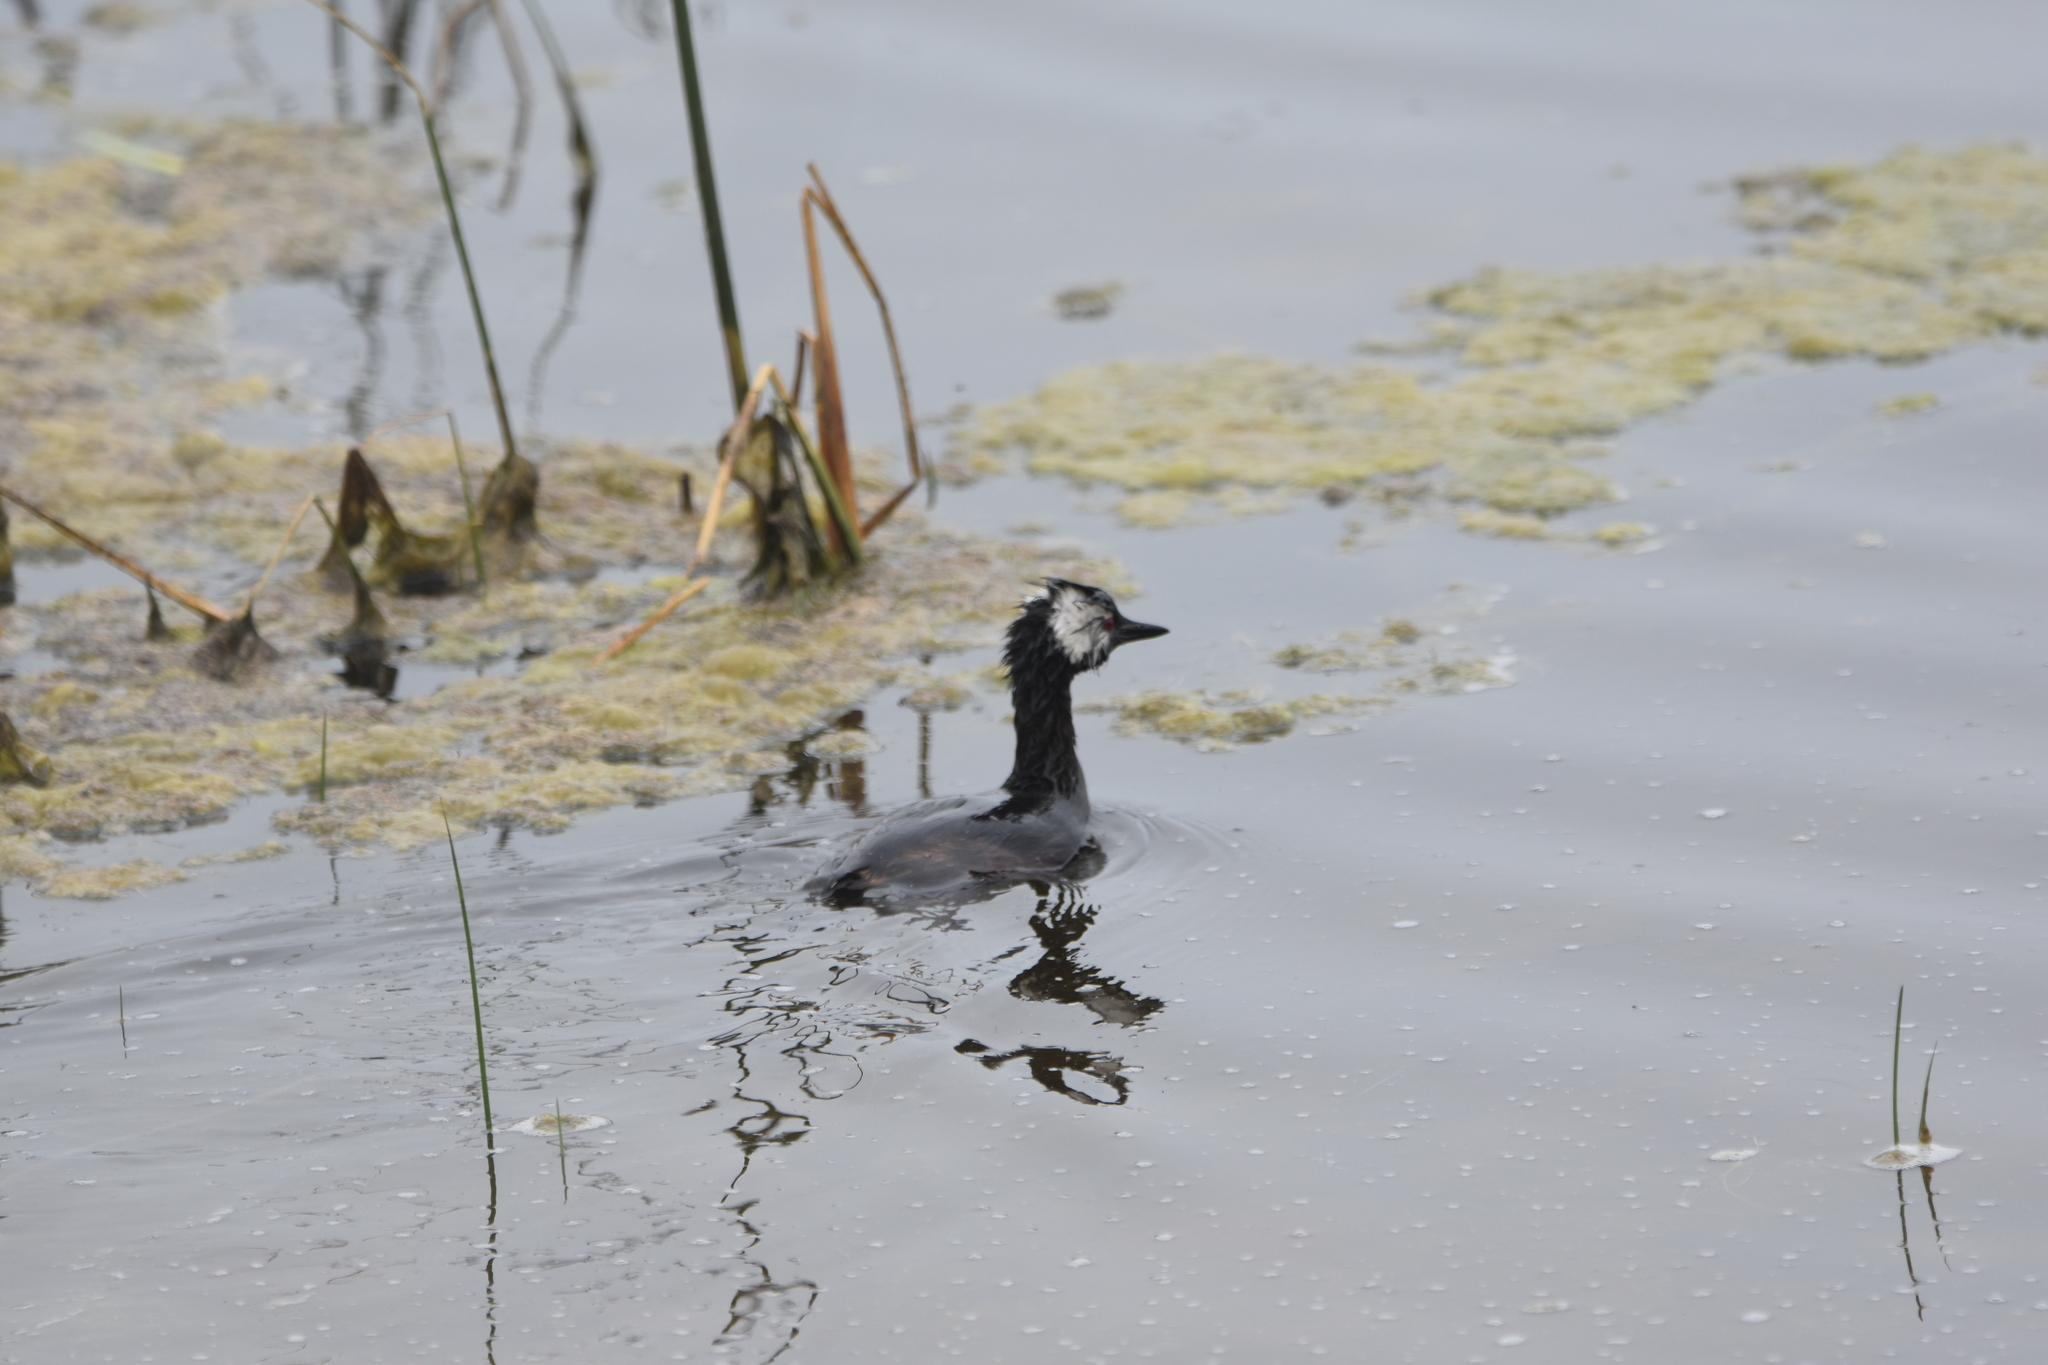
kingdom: Animalia
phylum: Chordata
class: Aves
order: Podicipediformes
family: Podicipedidae
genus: Rollandia
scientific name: Rollandia rolland
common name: White-tufted grebe
